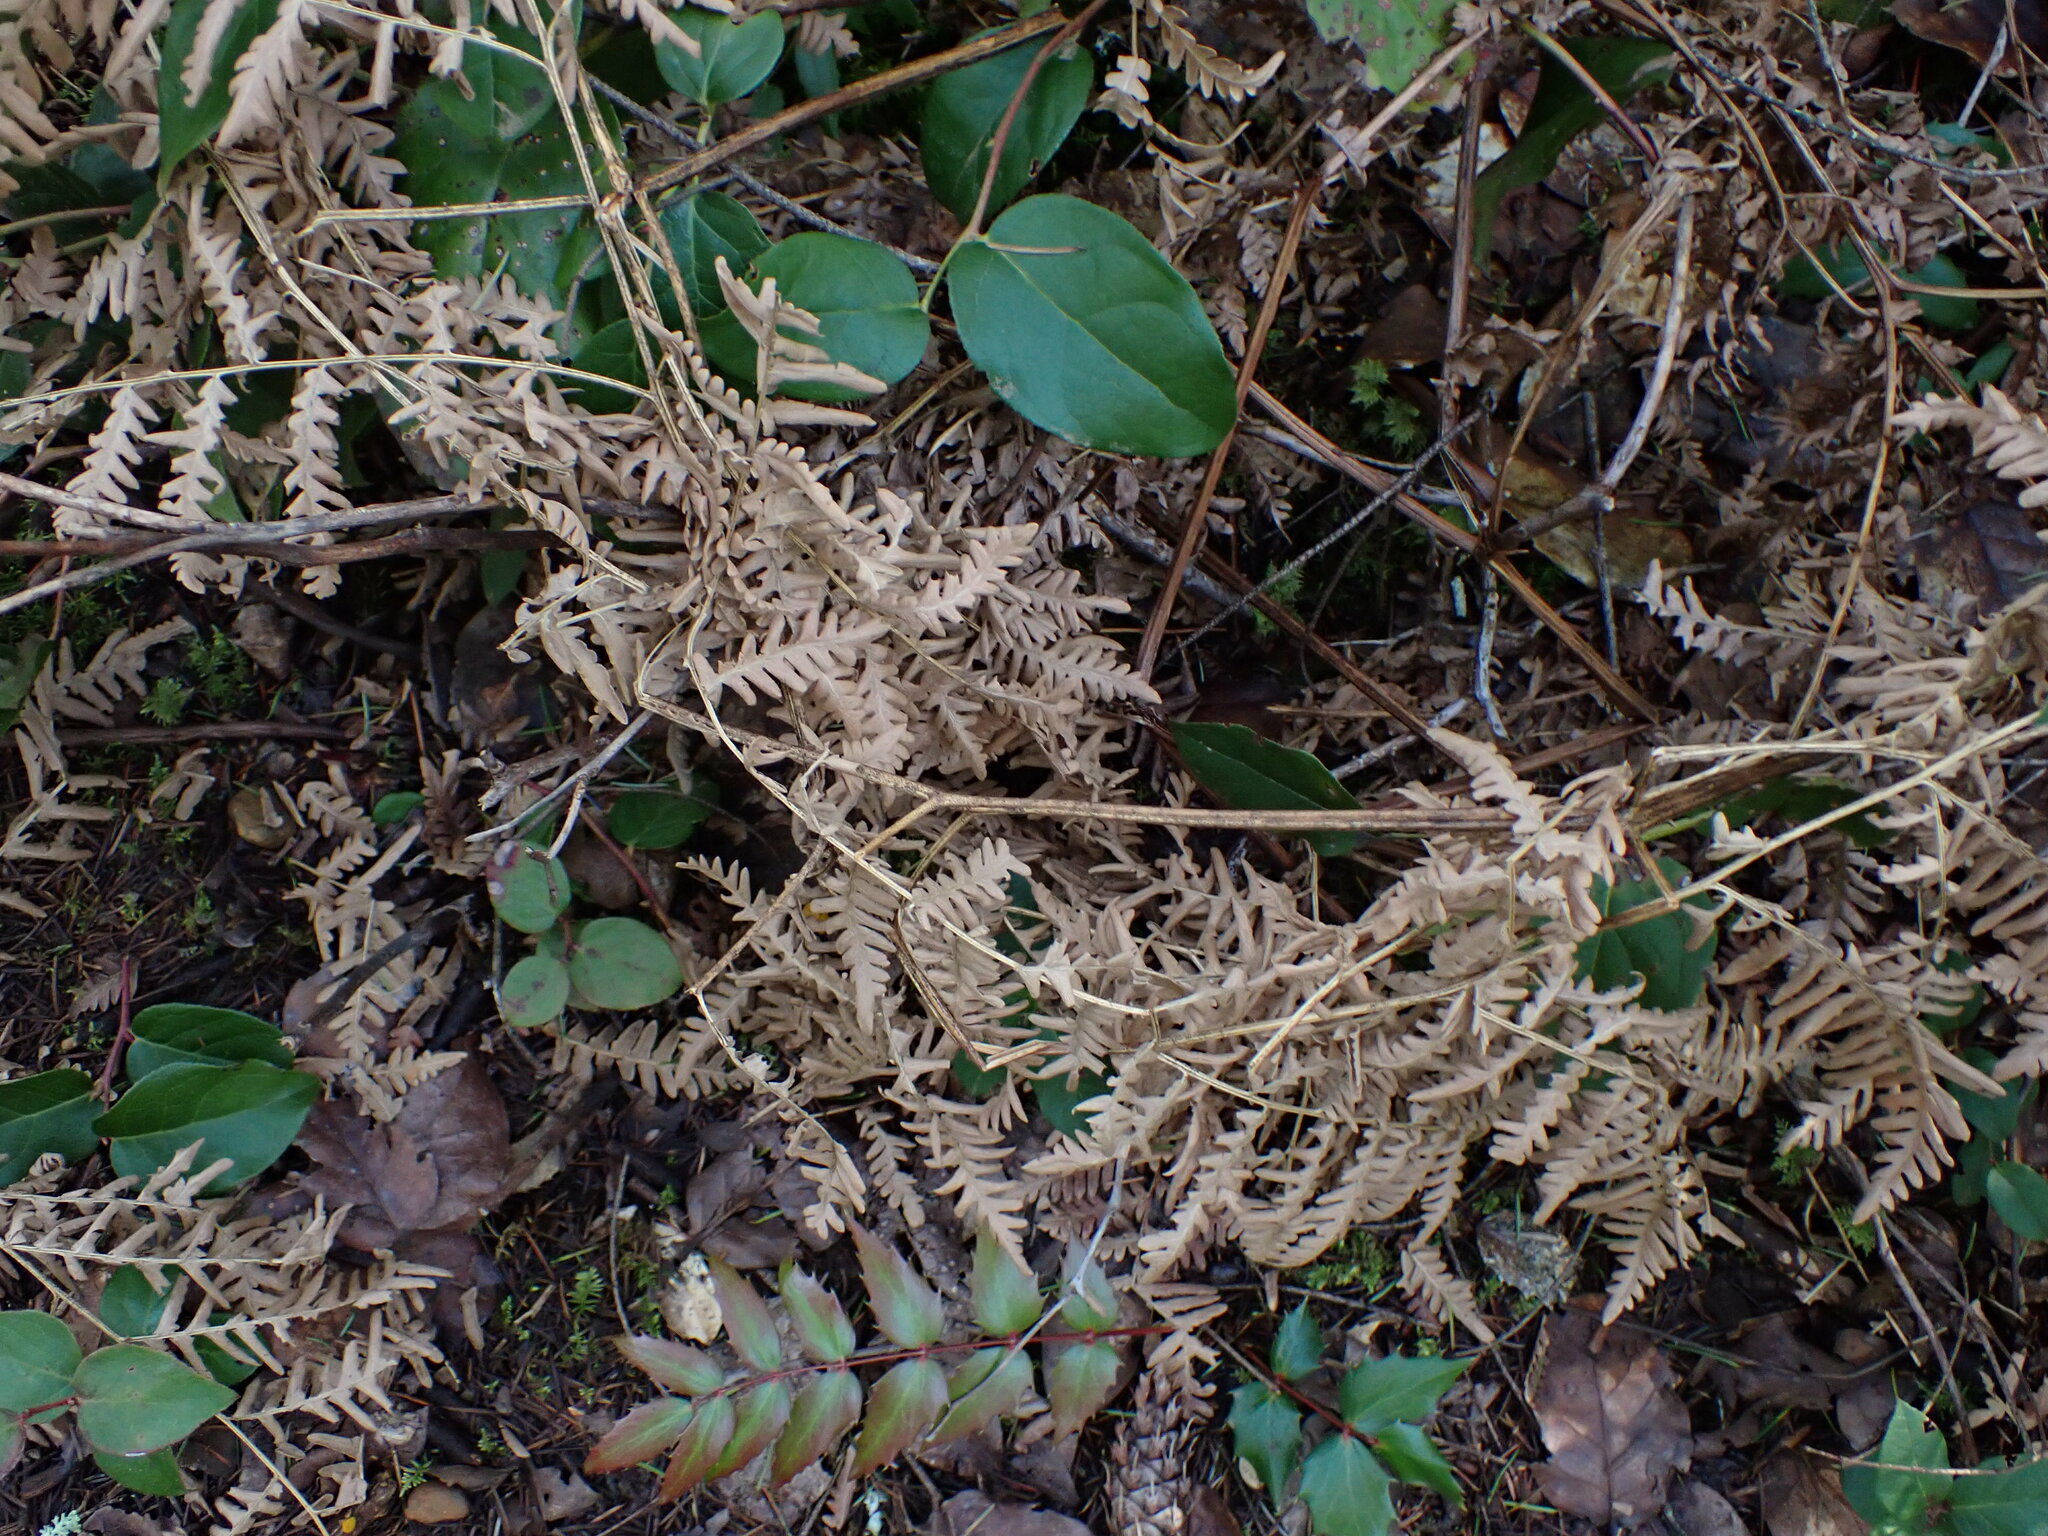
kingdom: Plantae
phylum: Tracheophyta
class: Polypodiopsida
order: Polypodiales
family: Dennstaedtiaceae
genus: Pteridium
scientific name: Pteridium aquilinum
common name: Bracken
